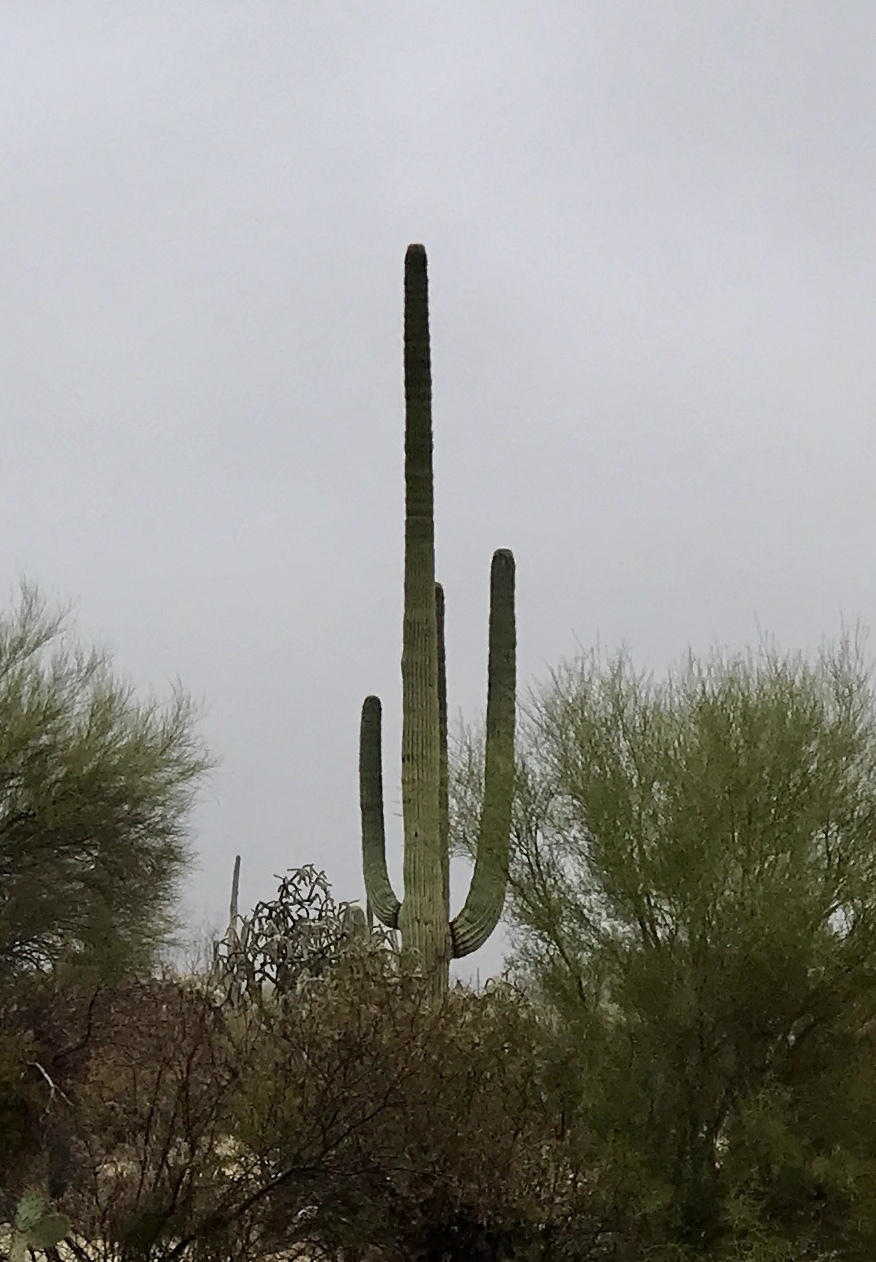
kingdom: Plantae
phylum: Tracheophyta
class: Magnoliopsida
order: Caryophyllales
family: Cactaceae
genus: Carnegiea
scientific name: Carnegiea gigantea
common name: Saguaro
